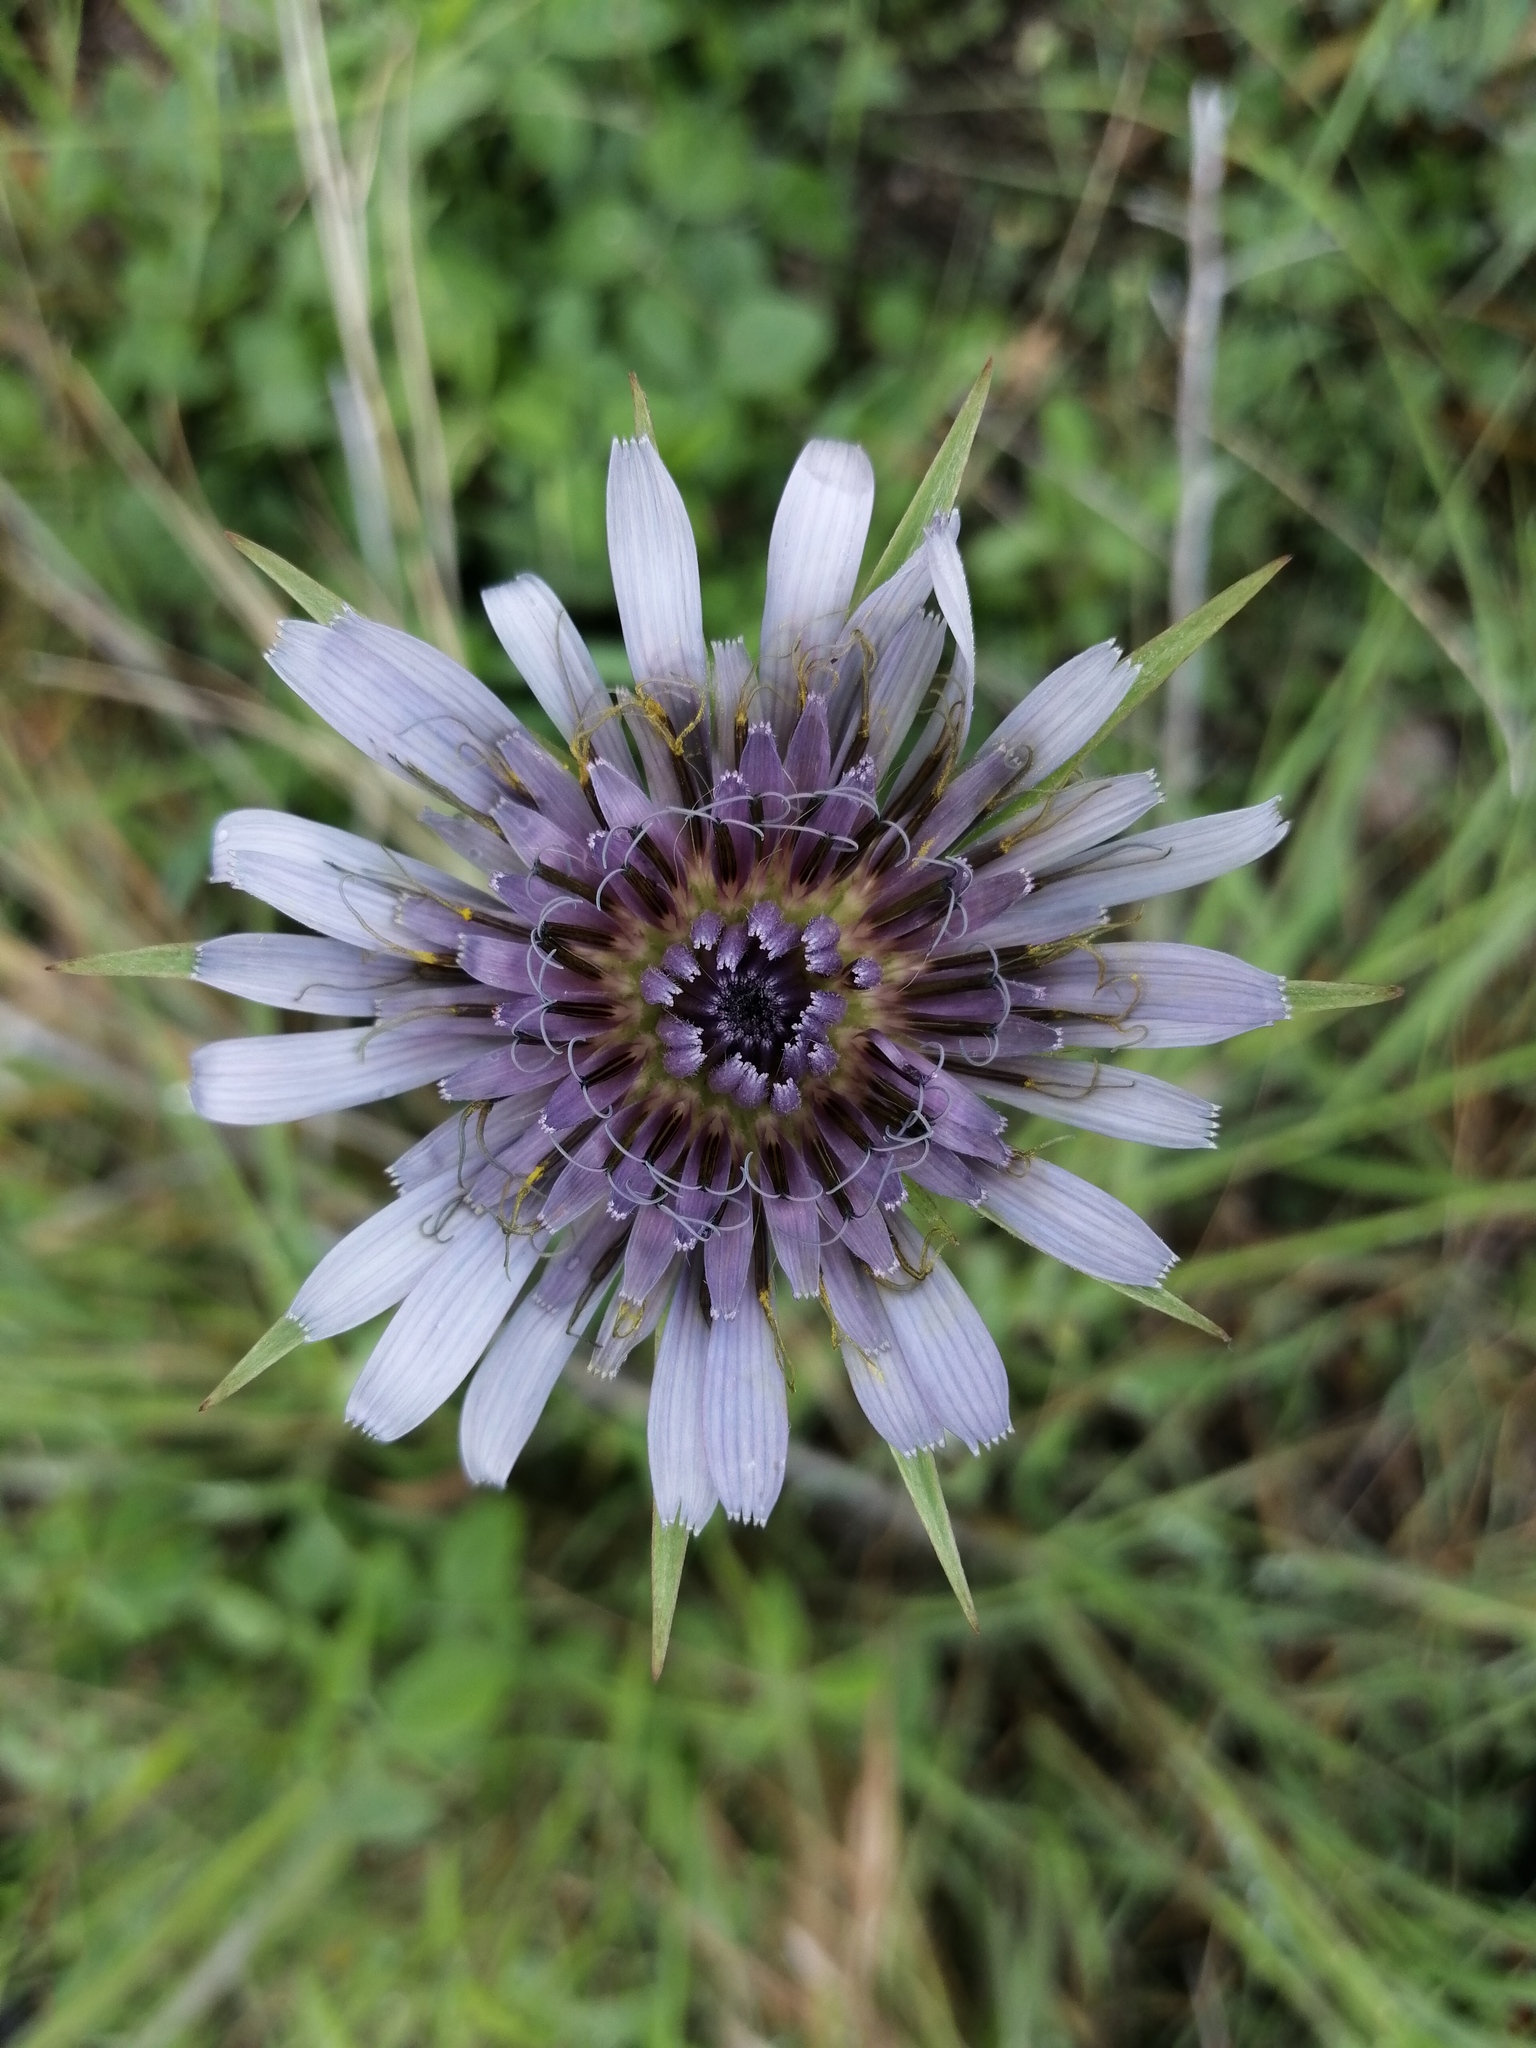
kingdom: Plantae
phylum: Tracheophyta
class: Magnoliopsida
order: Asterales
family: Asteraceae
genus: Tragopogon
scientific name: Tragopogon porrifolius
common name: Salsify
